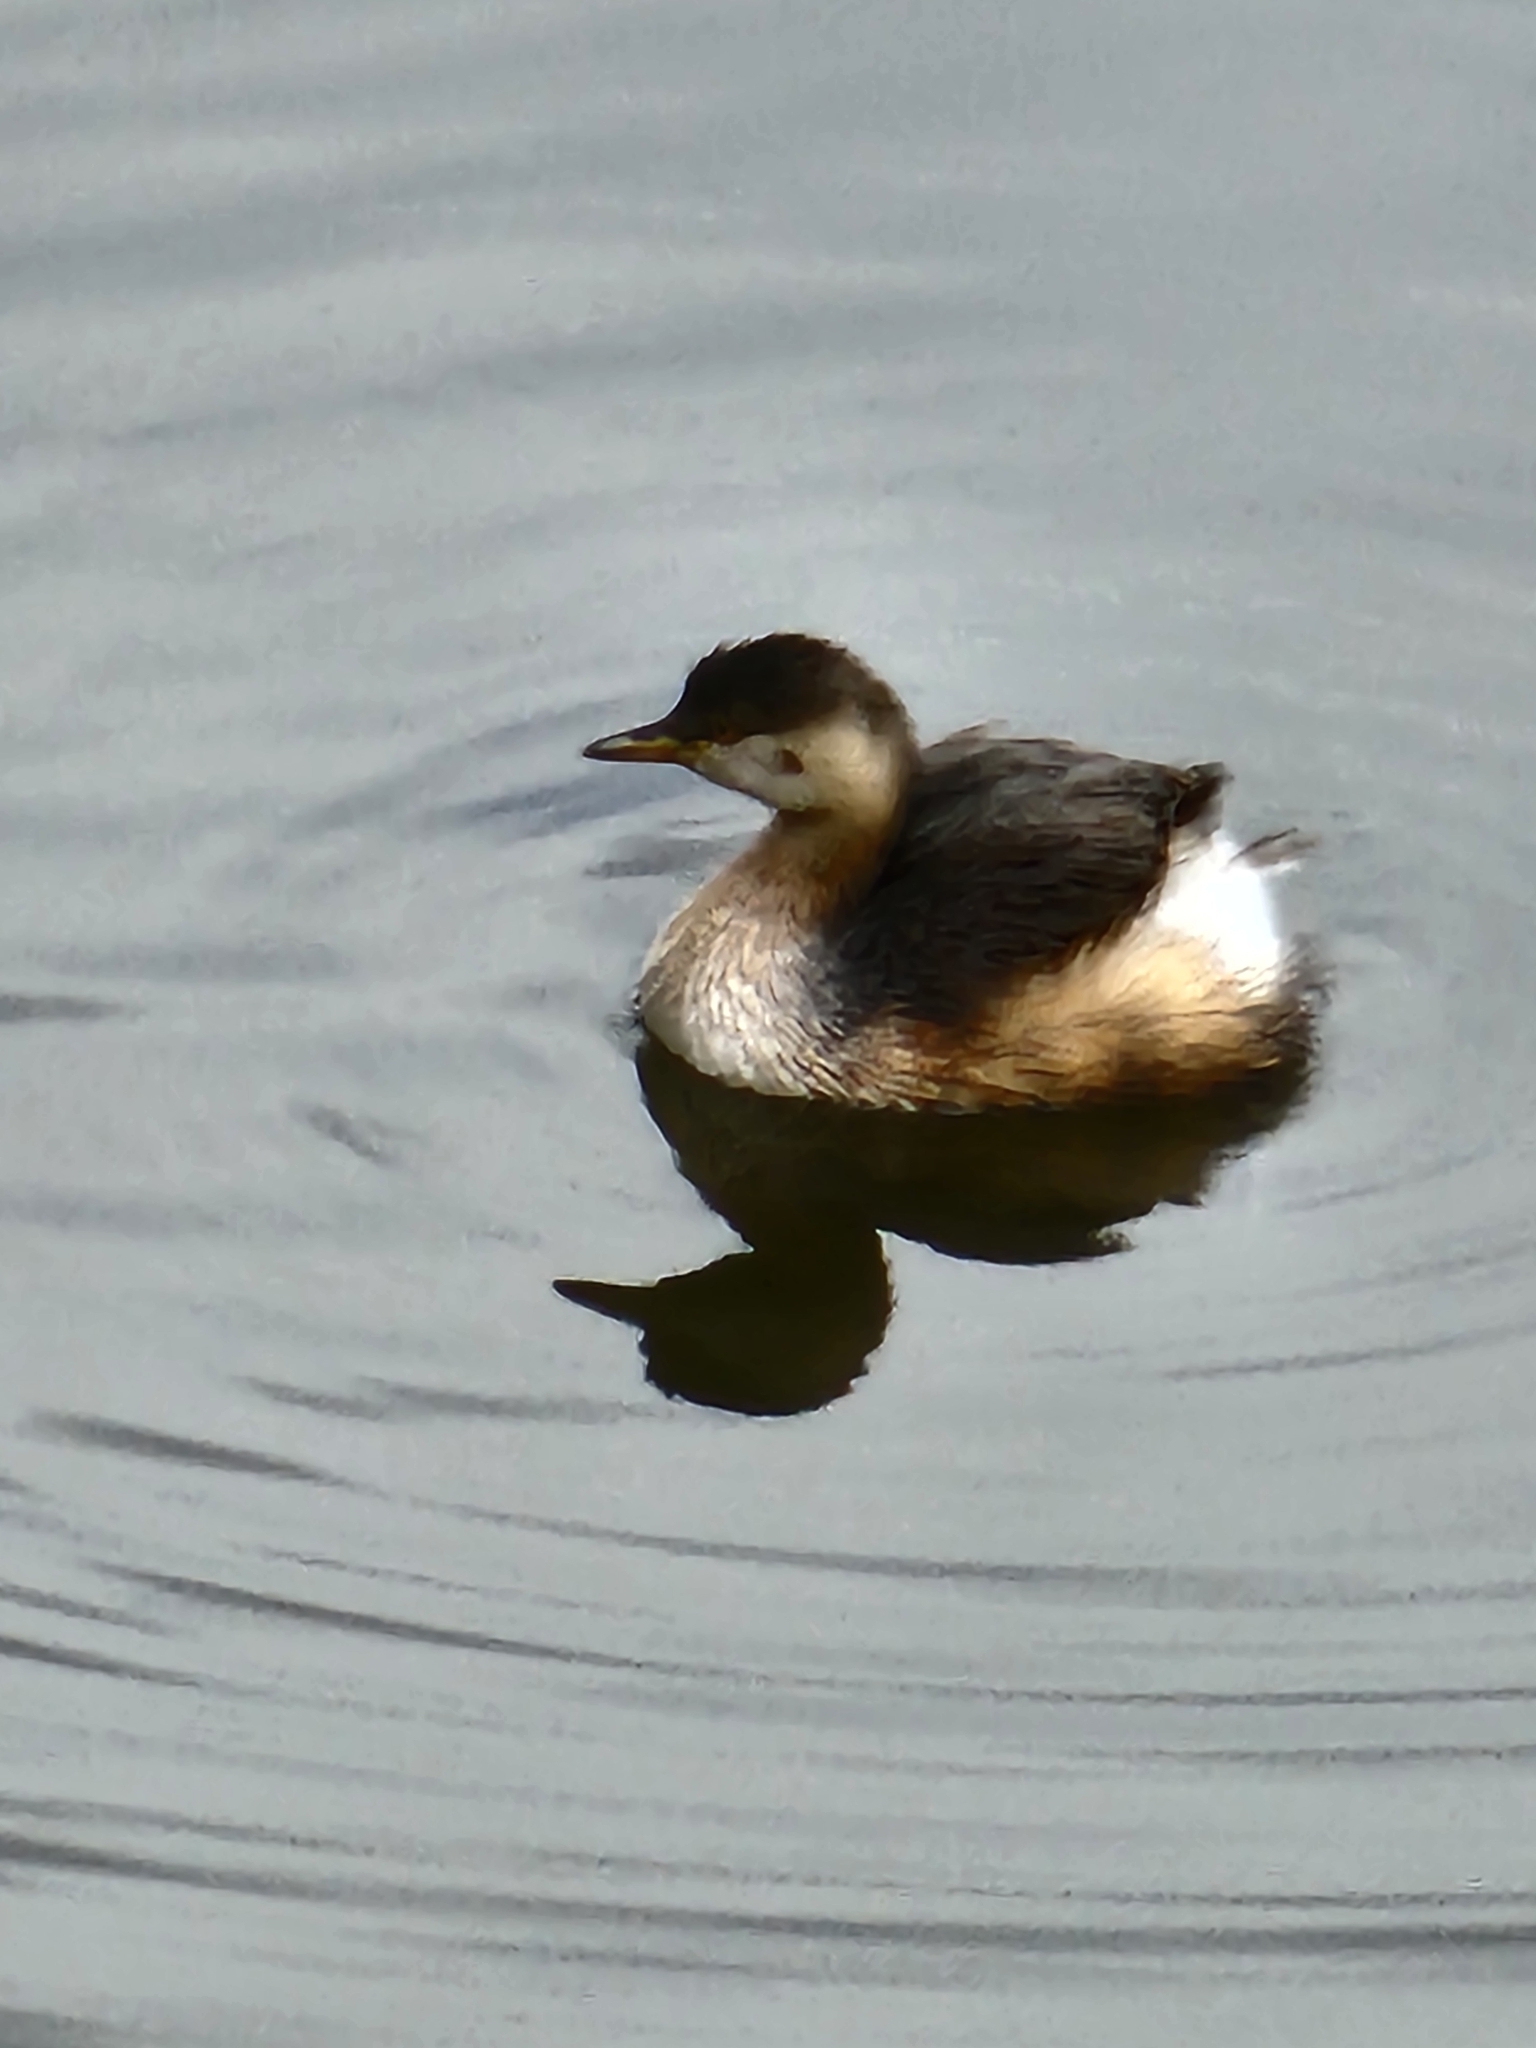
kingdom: Animalia
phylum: Chordata
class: Aves
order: Podicipediformes
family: Podicipedidae
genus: Tachybaptus
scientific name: Tachybaptus novaehollandiae
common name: Australasian grebe
